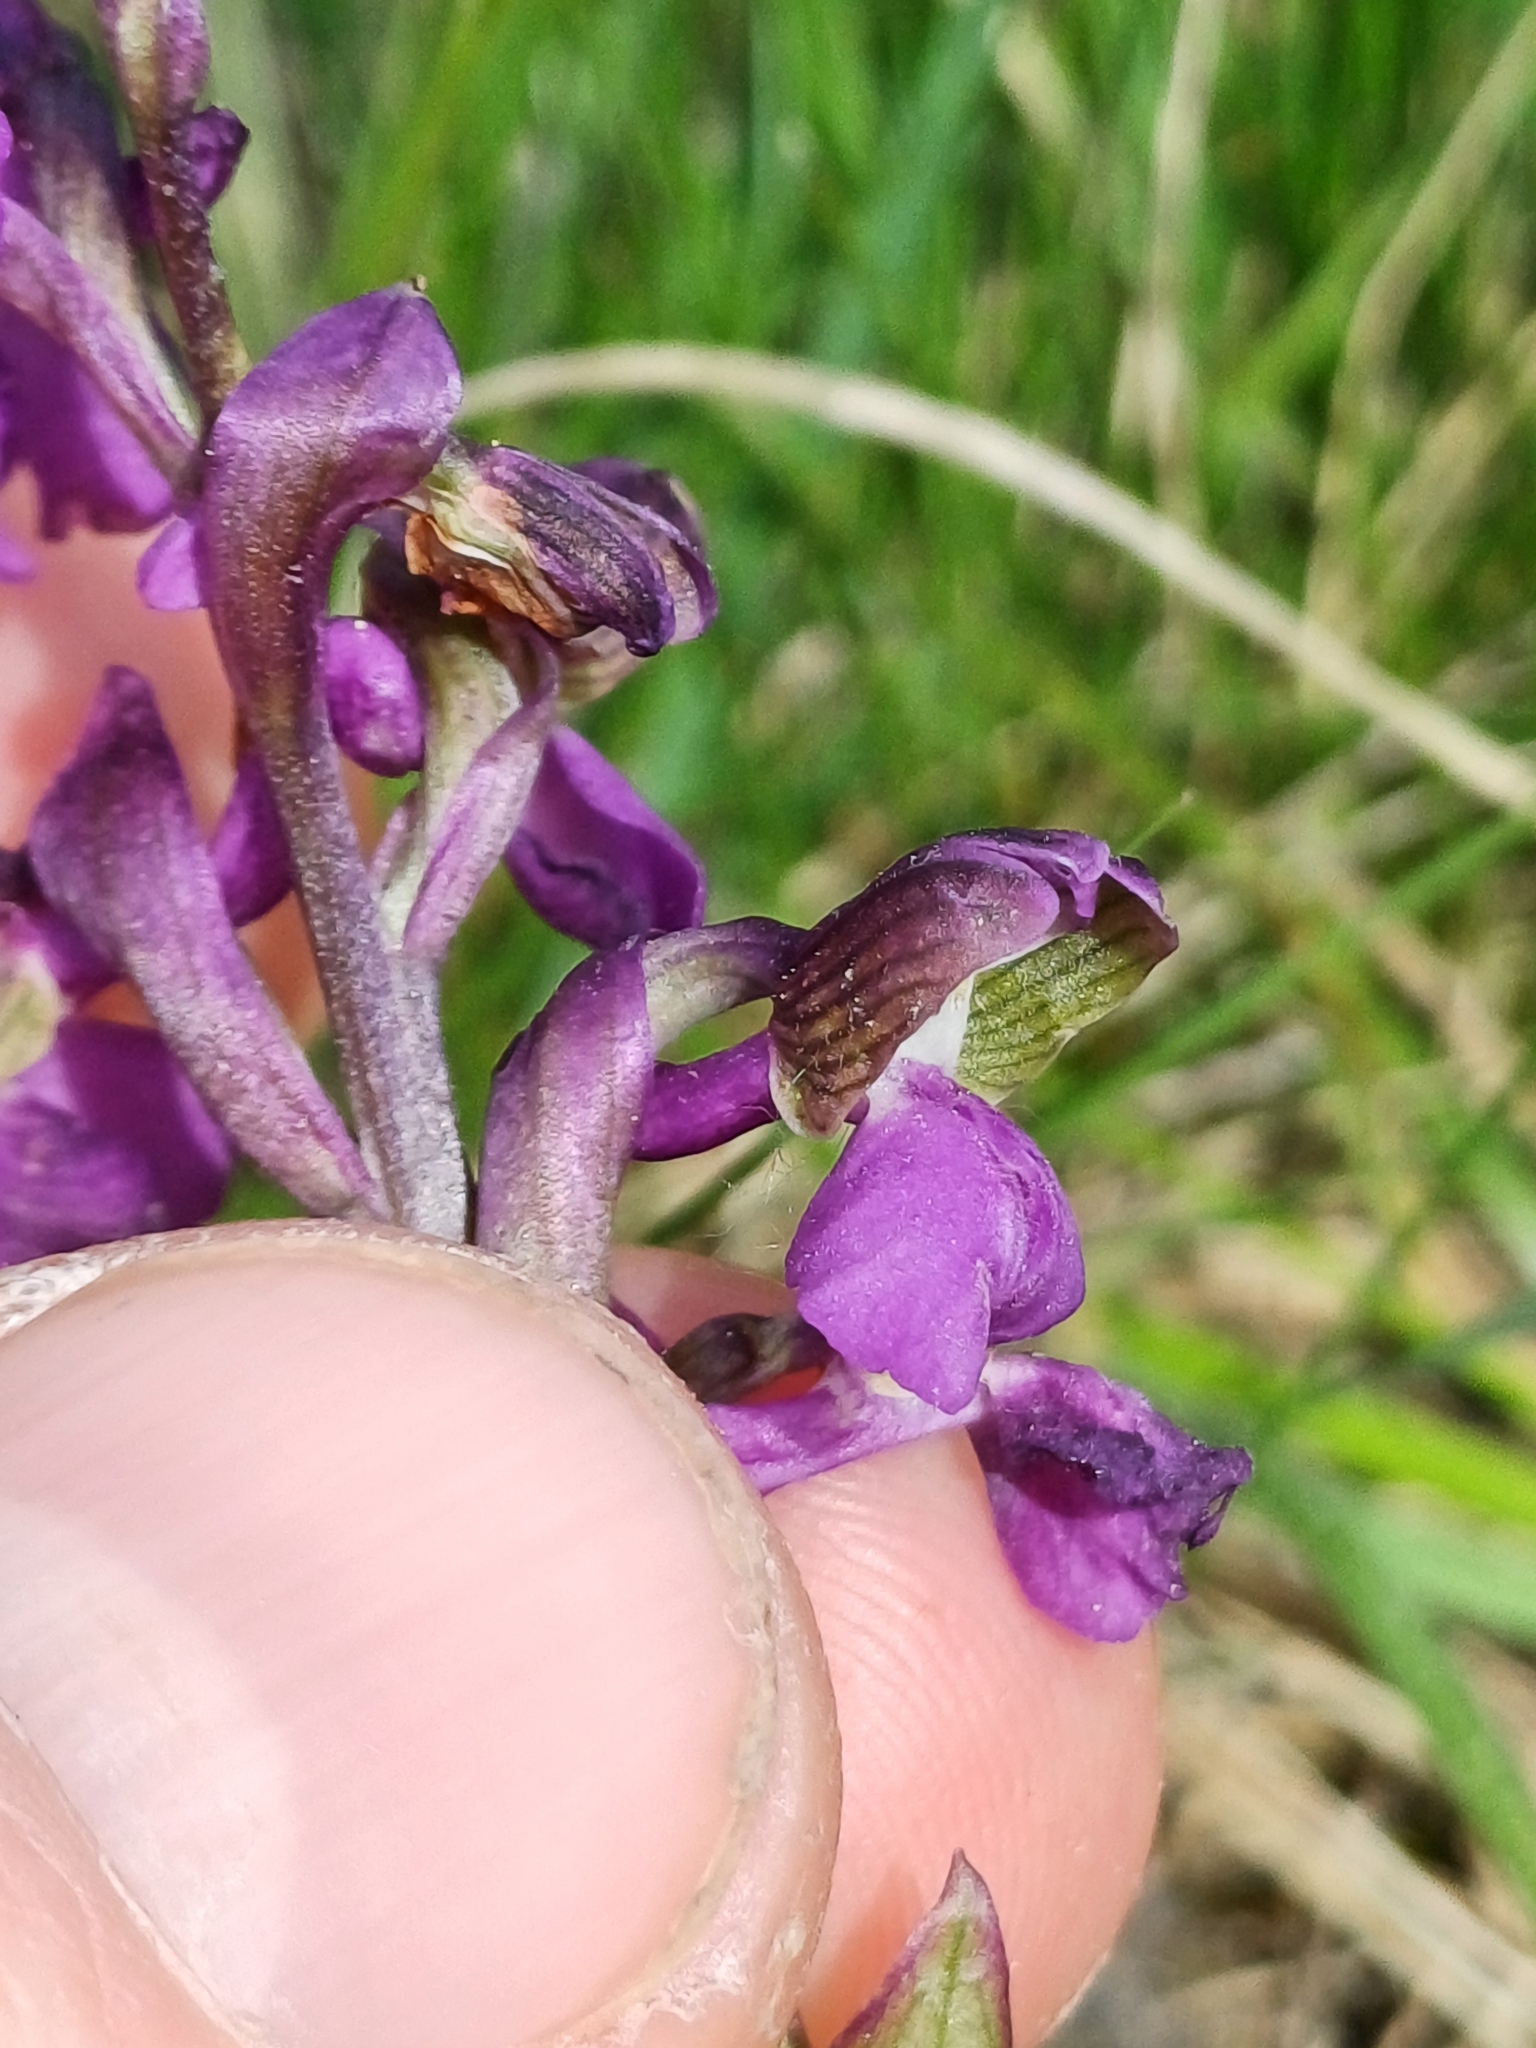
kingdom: Plantae
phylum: Tracheophyta
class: Liliopsida
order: Asparagales
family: Orchidaceae
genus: Anacamptis
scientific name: Anacamptis morio
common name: Green-winged orchid
